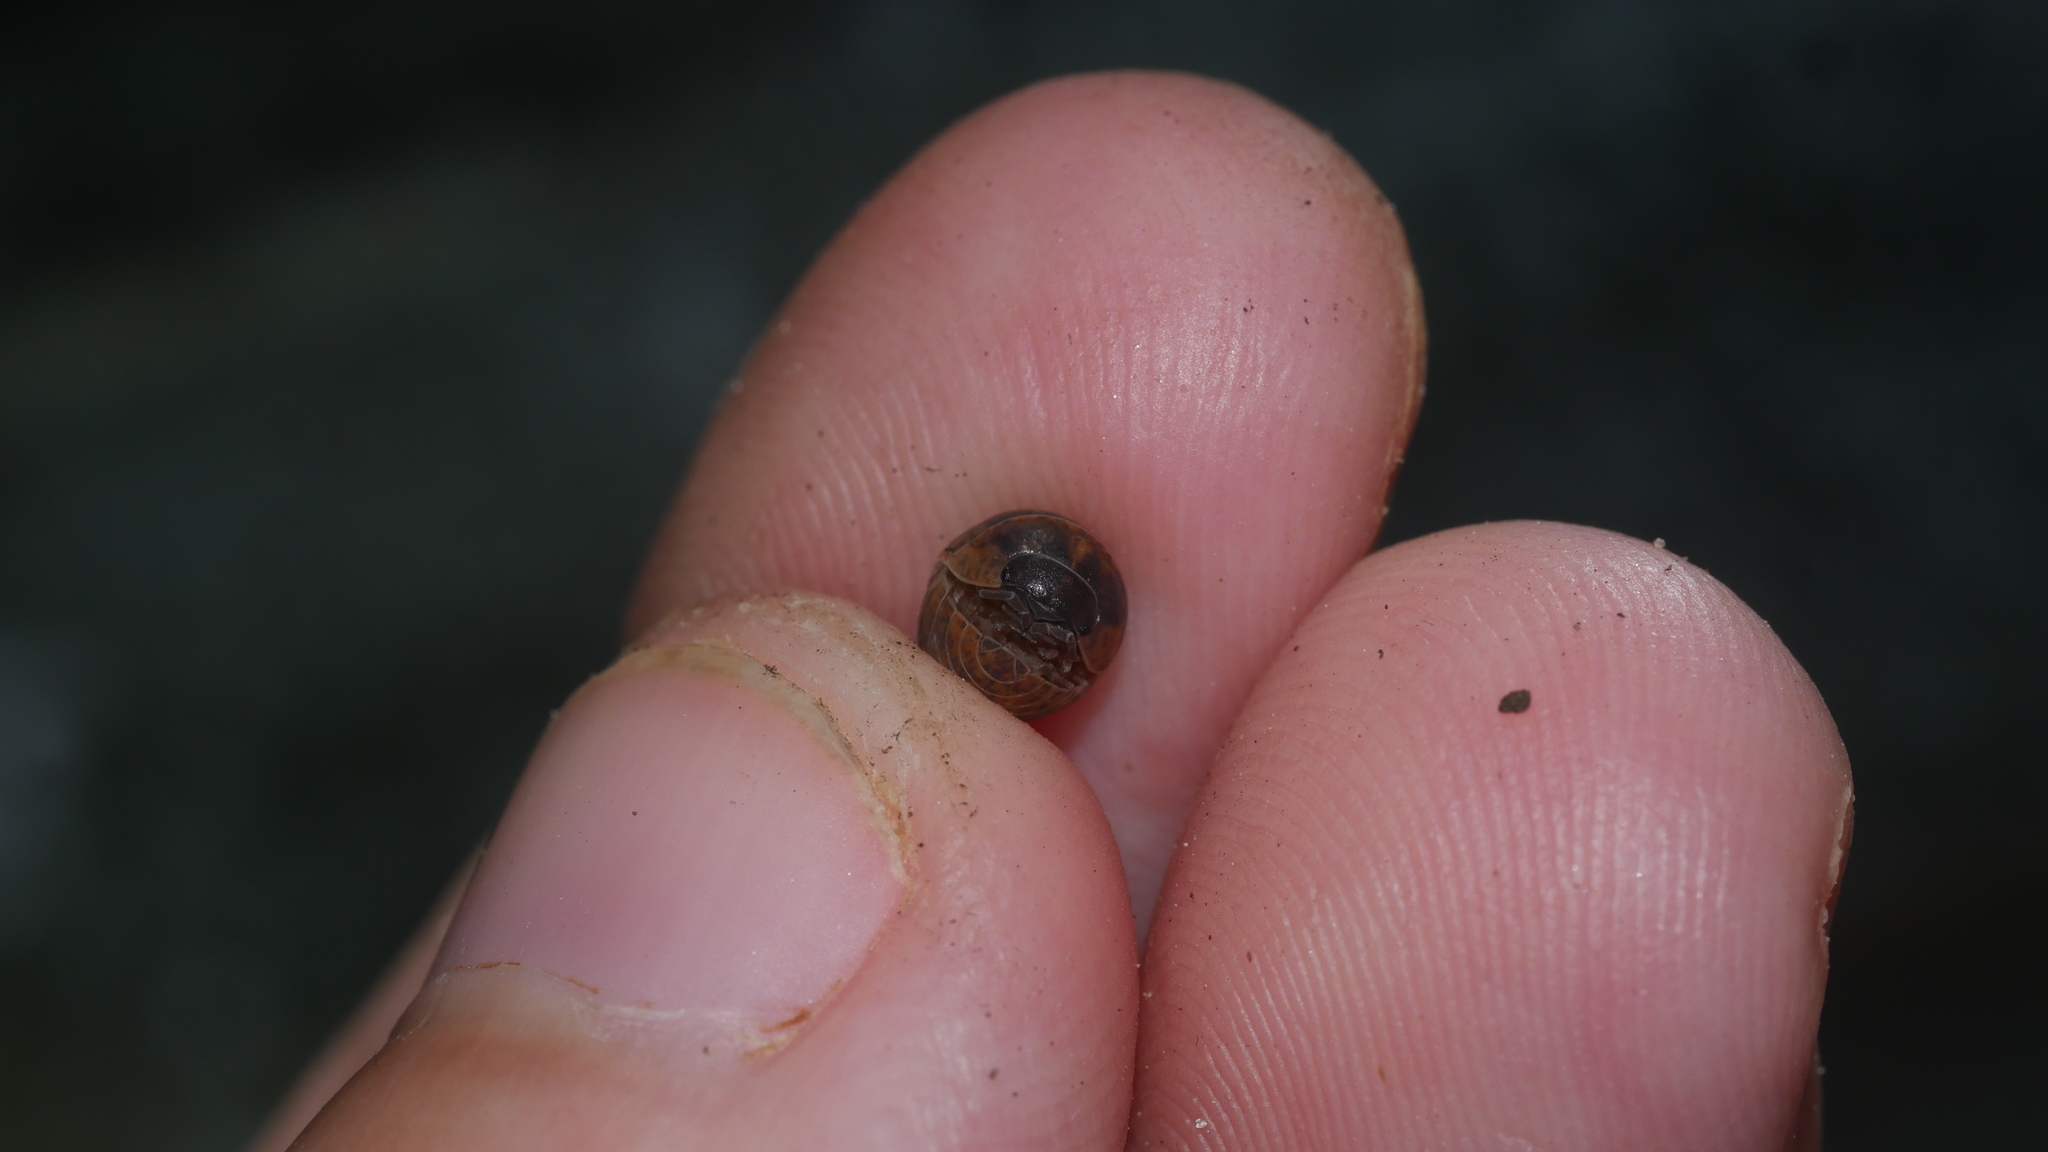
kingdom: Animalia
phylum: Arthropoda
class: Malacostraca
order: Isopoda
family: Armadillidiidae
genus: Armadillidium
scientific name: Armadillidium vulgare
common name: Common pill woodlouse
